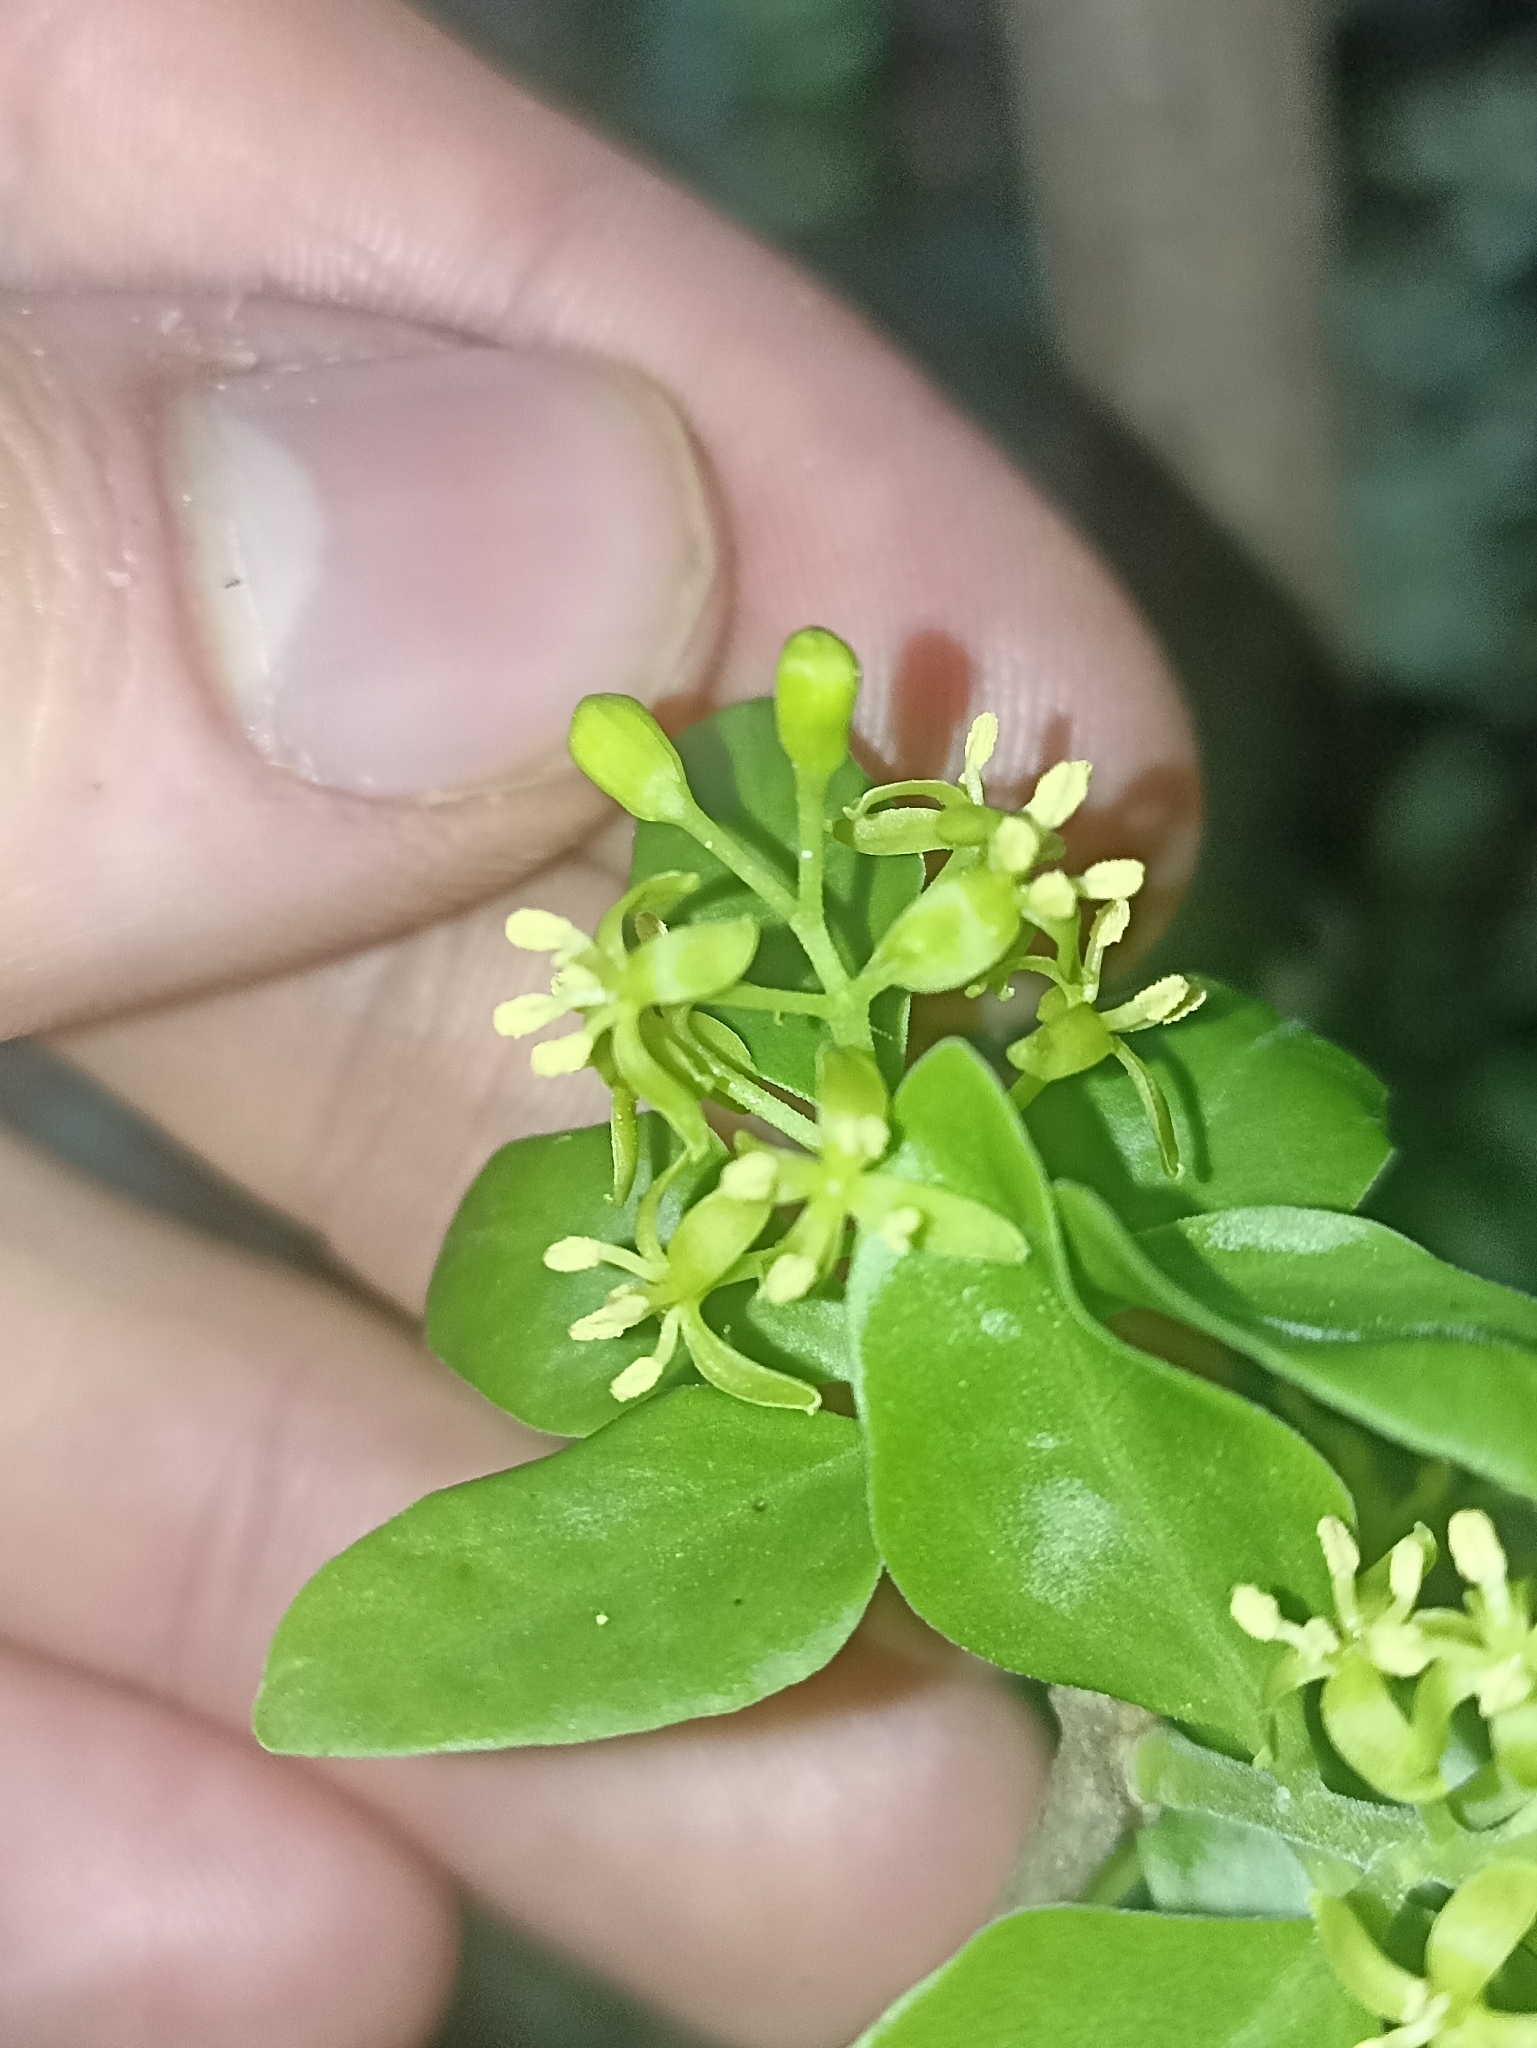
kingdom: Plantae
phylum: Tracheophyta
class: Magnoliopsida
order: Santalales
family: Loranthaceae
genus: Tupeia
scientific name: Tupeia antarctica
